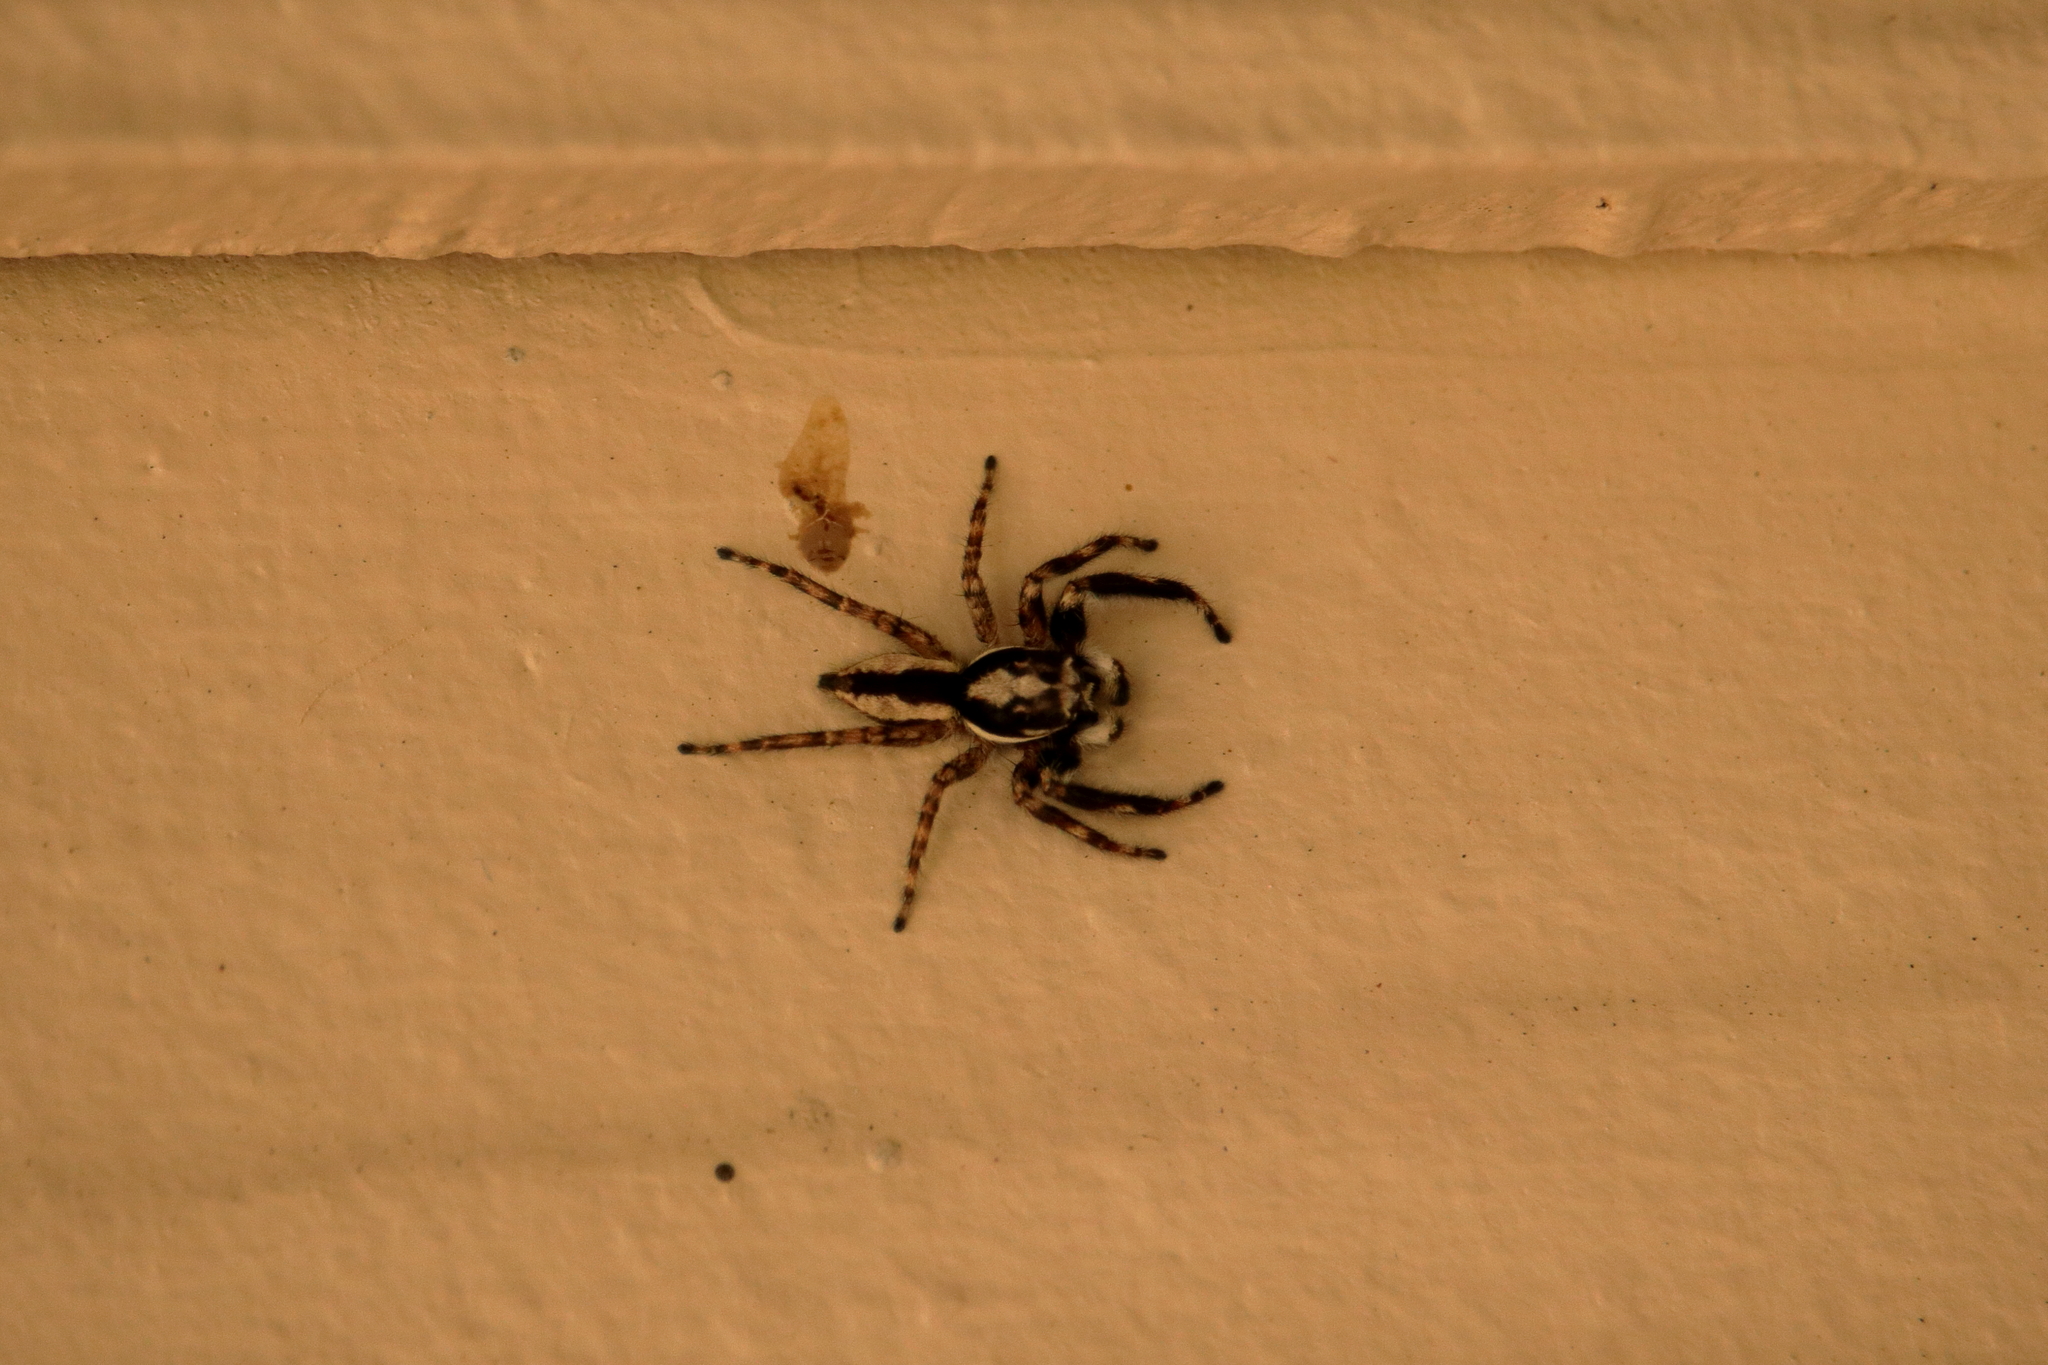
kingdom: Animalia
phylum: Arthropoda
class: Arachnida
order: Araneae
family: Salticidae
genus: Menemerus
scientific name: Menemerus bivittatus
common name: Gray wall jumper
